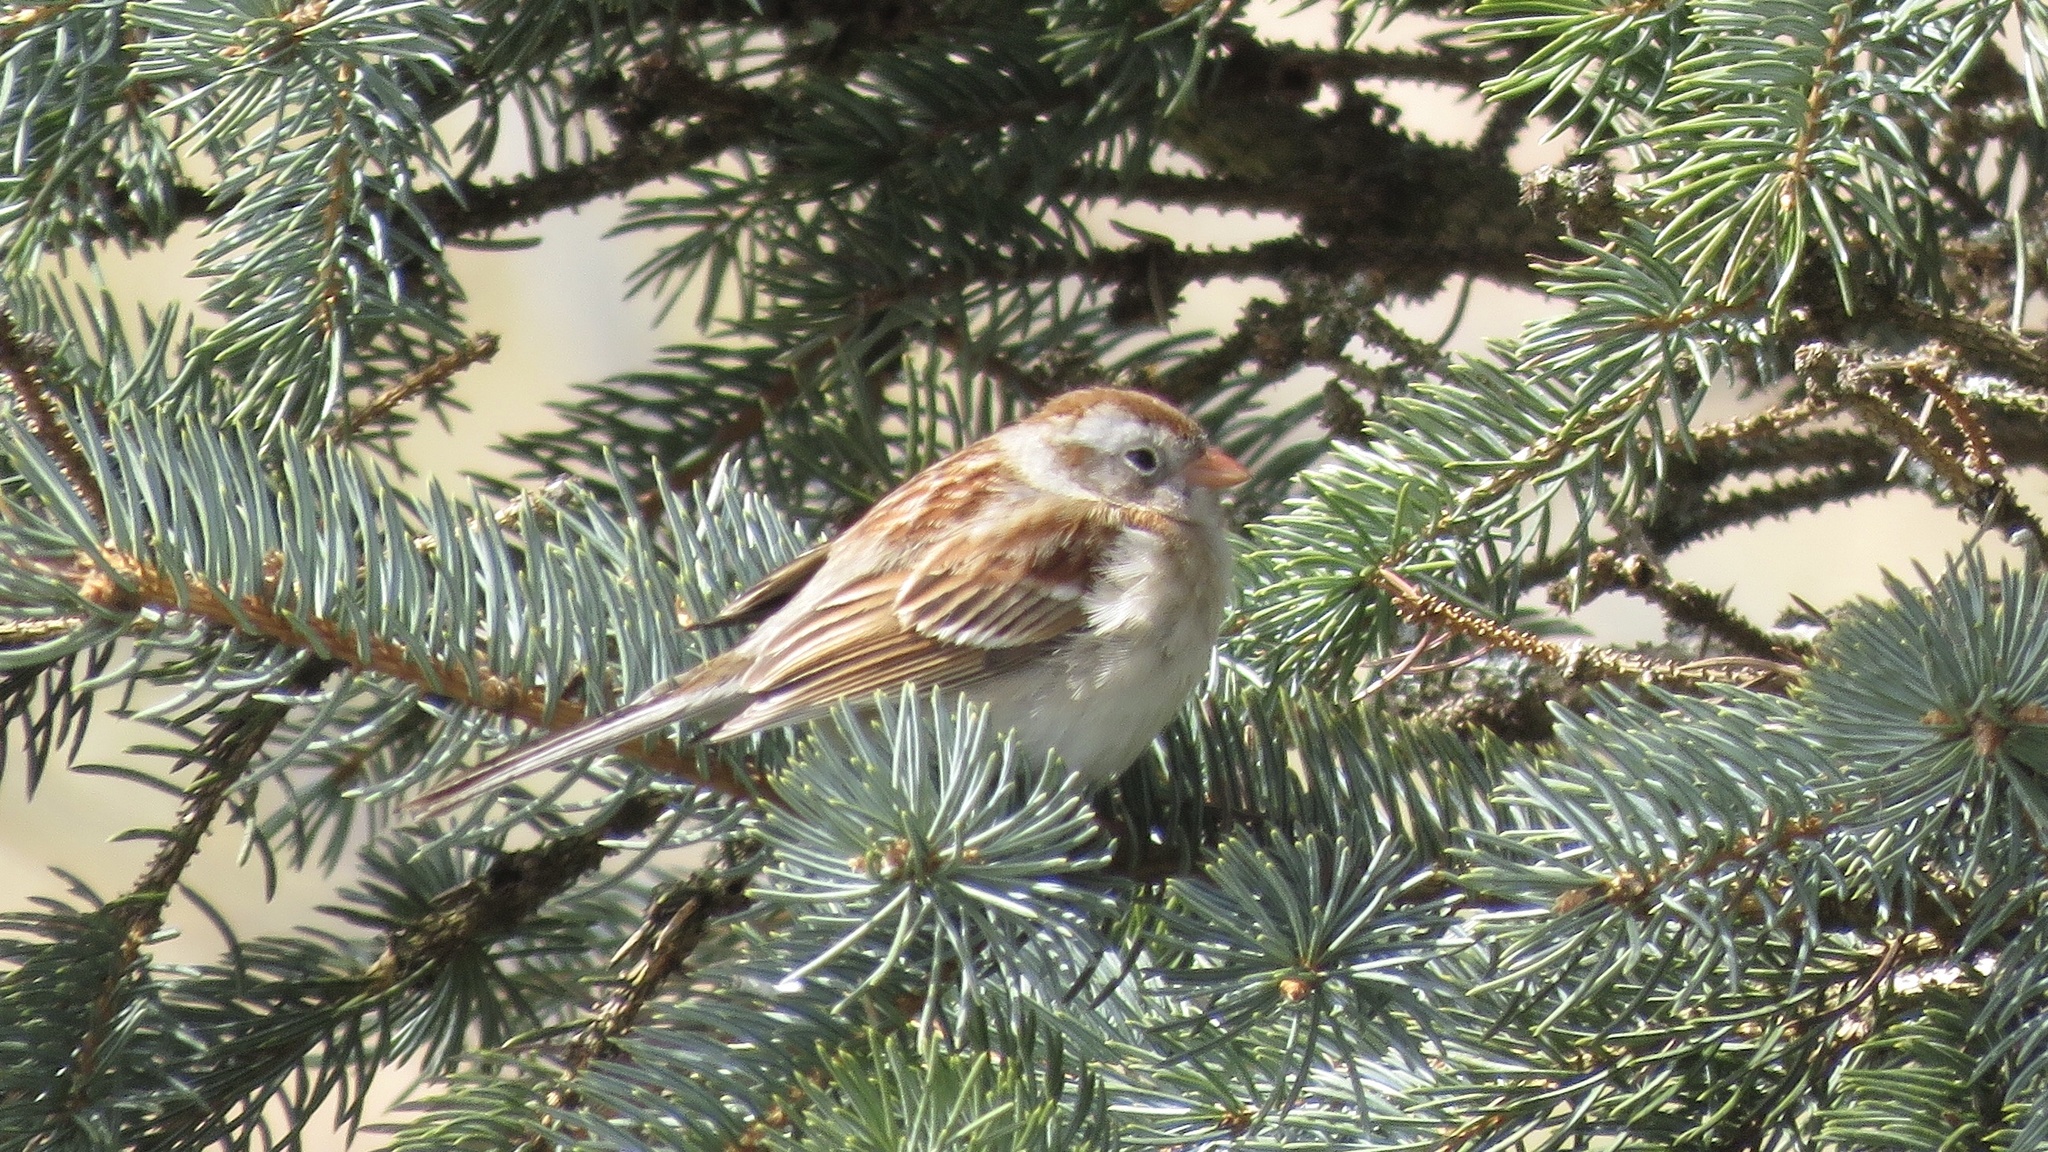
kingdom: Animalia
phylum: Chordata
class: Aves
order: Passeriformes
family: Passerellidae
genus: Spizella
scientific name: Spizella pusilla
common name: Field sparrow
